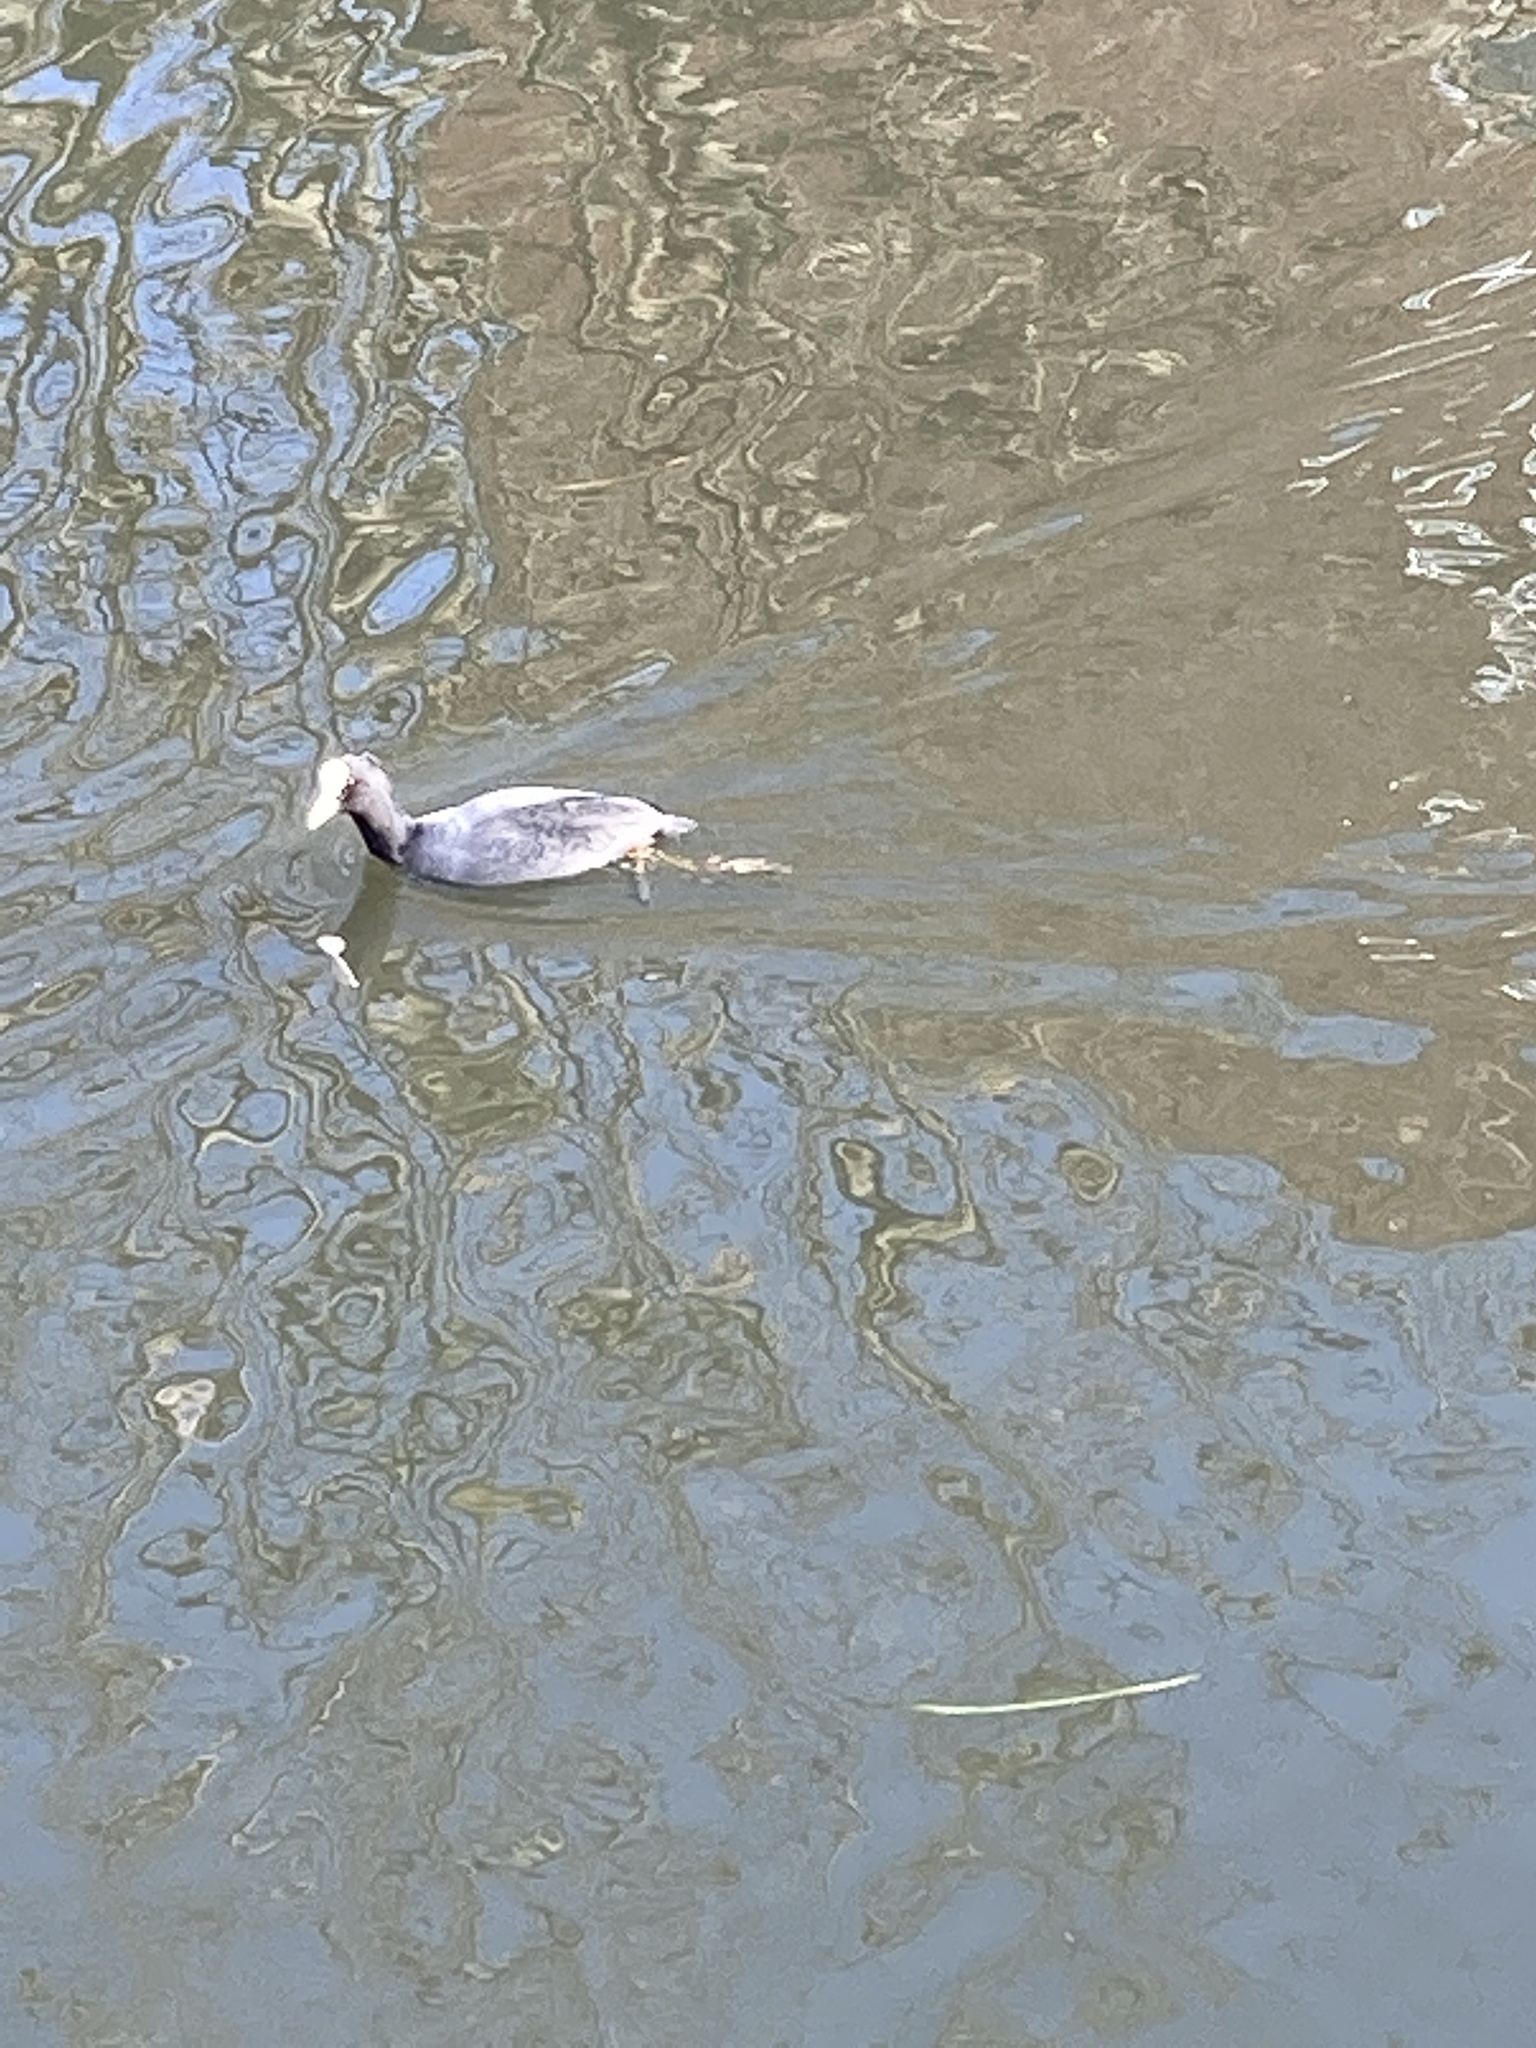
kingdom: Animalia
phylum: Chordata
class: Aves
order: Gruiformes
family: Rallidae
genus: Fulica
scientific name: Fulica atra
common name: Eurasian coot
